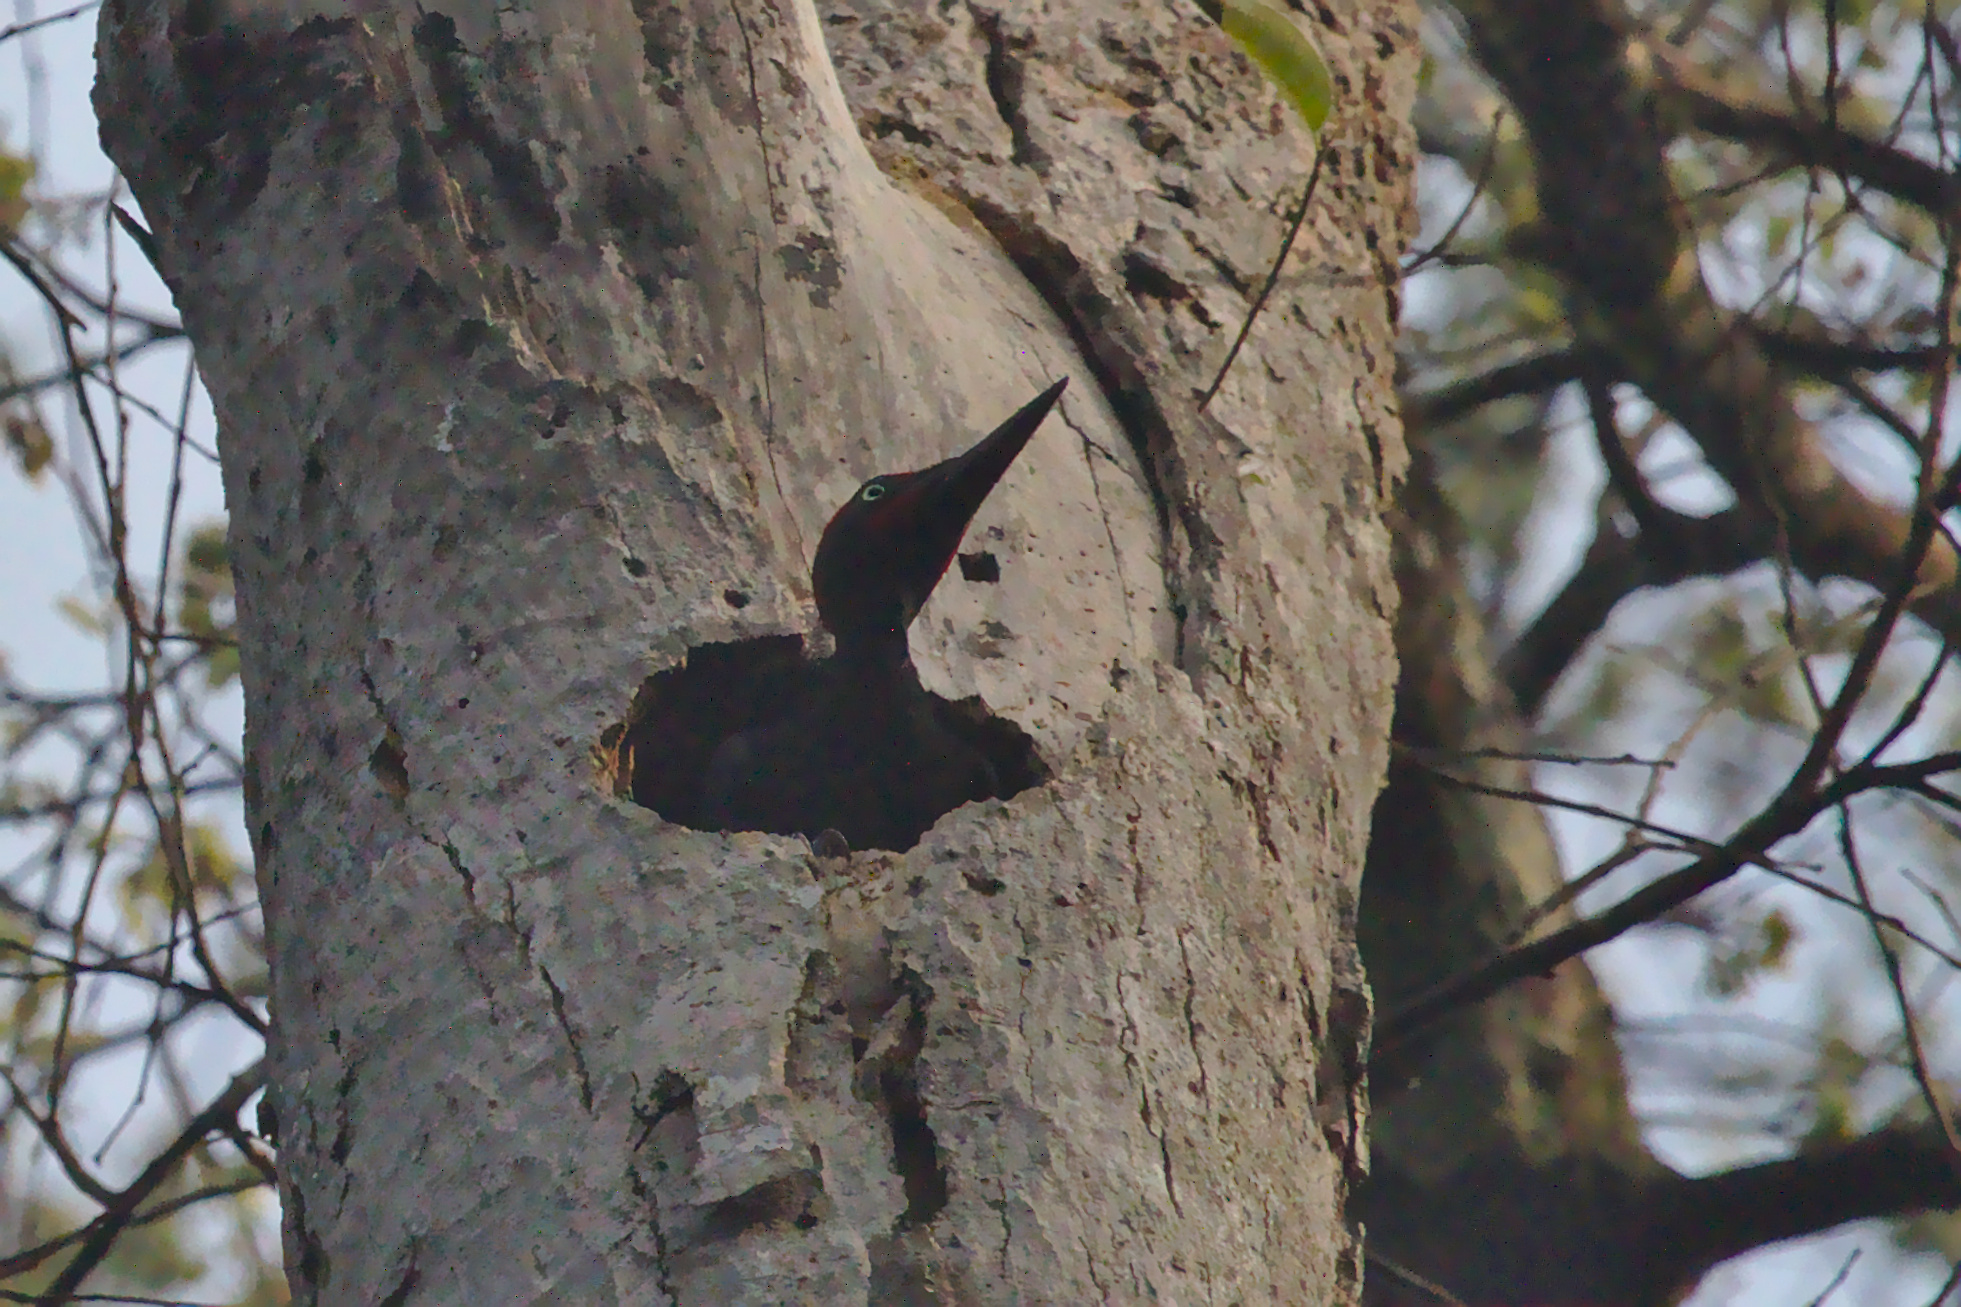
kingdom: Animalia
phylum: Chordata
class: Aves
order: Piciformes
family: Picidae
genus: Dryocopus
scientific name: Dryocopus javensis
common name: White-bellied woodpecker
